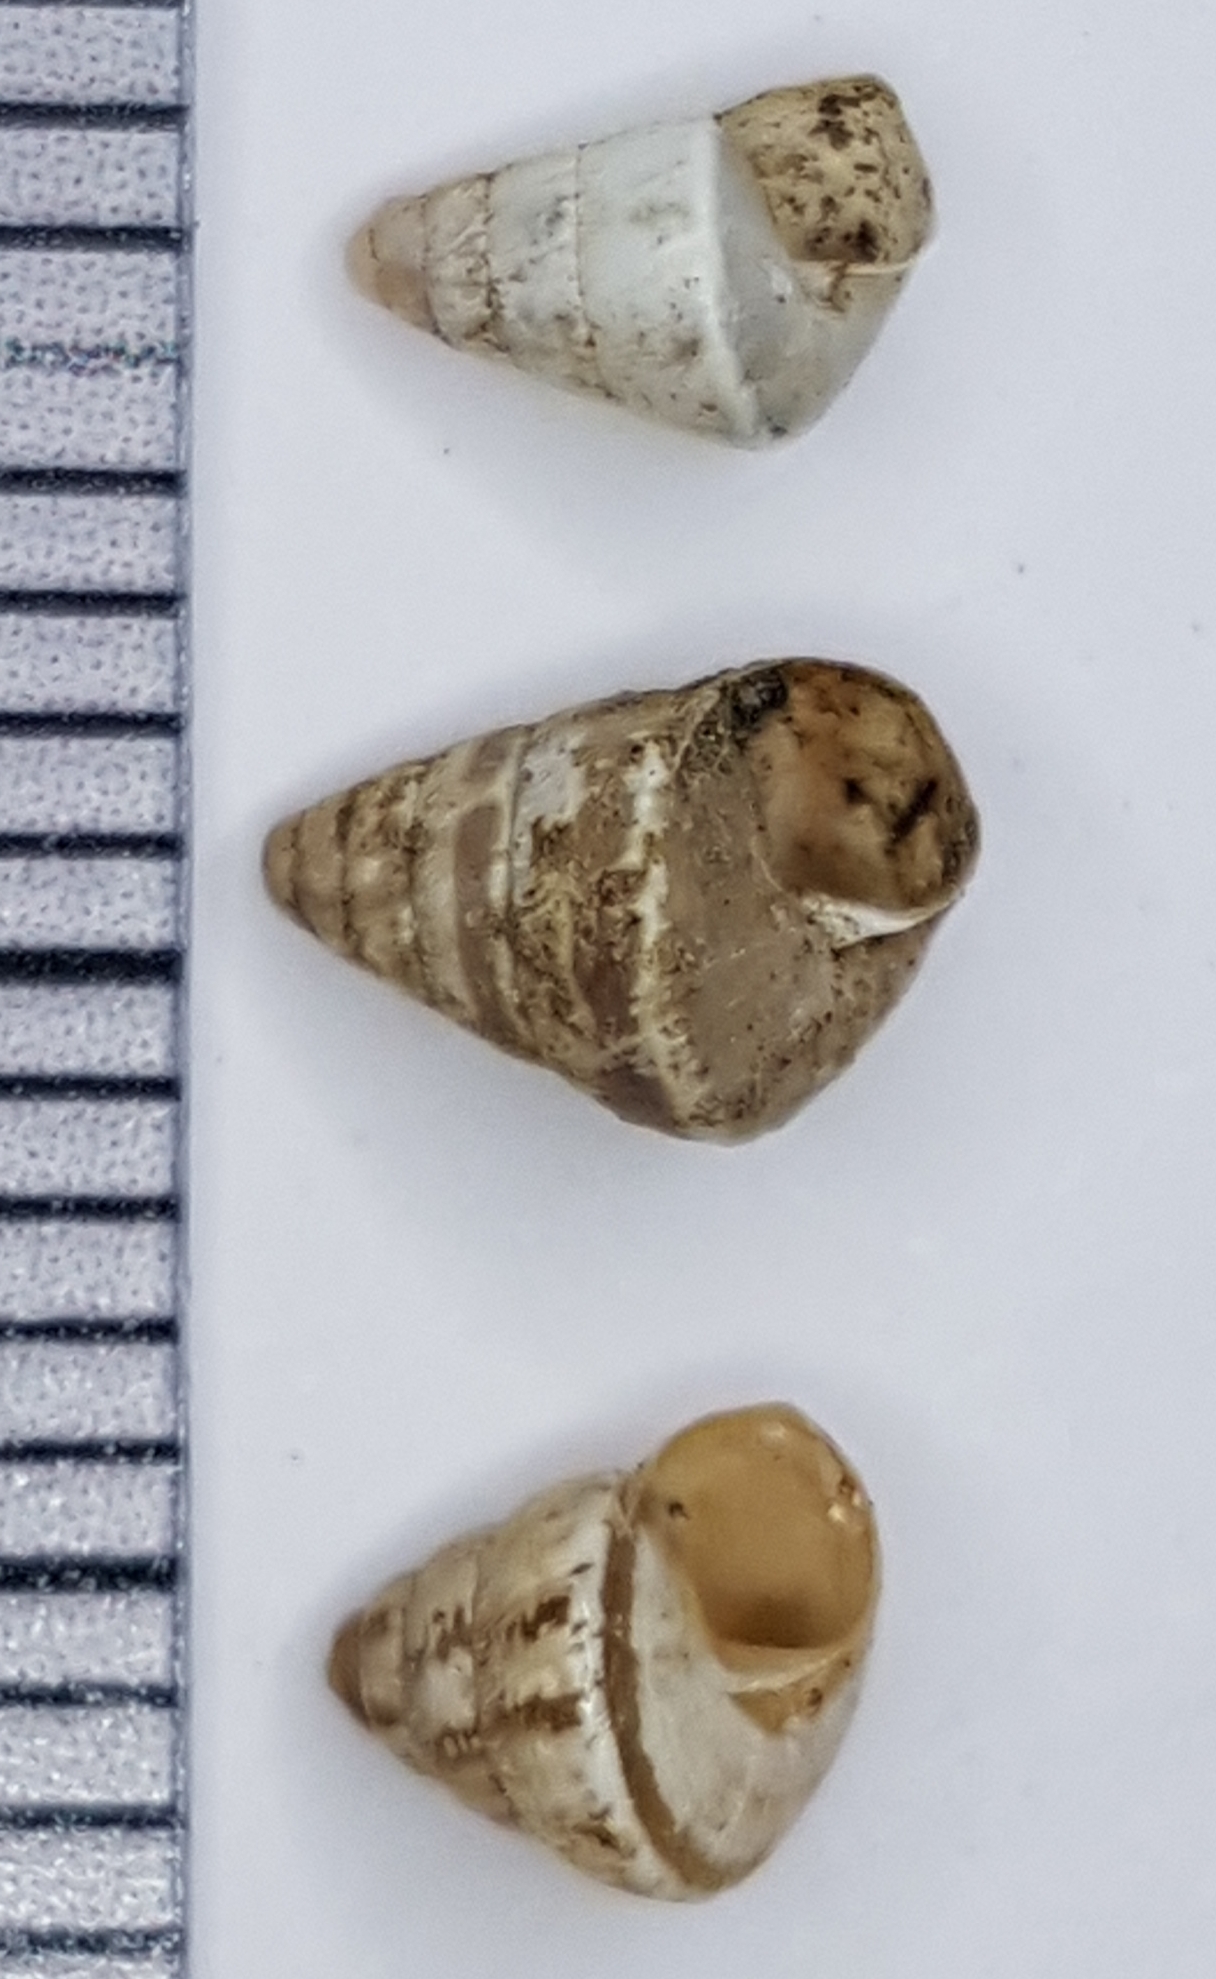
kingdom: Animalia
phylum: Mollusca
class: Gastropoda
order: Stylommatophora
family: Geomitridae
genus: Cochlicella
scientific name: Cochlicella conoidea
